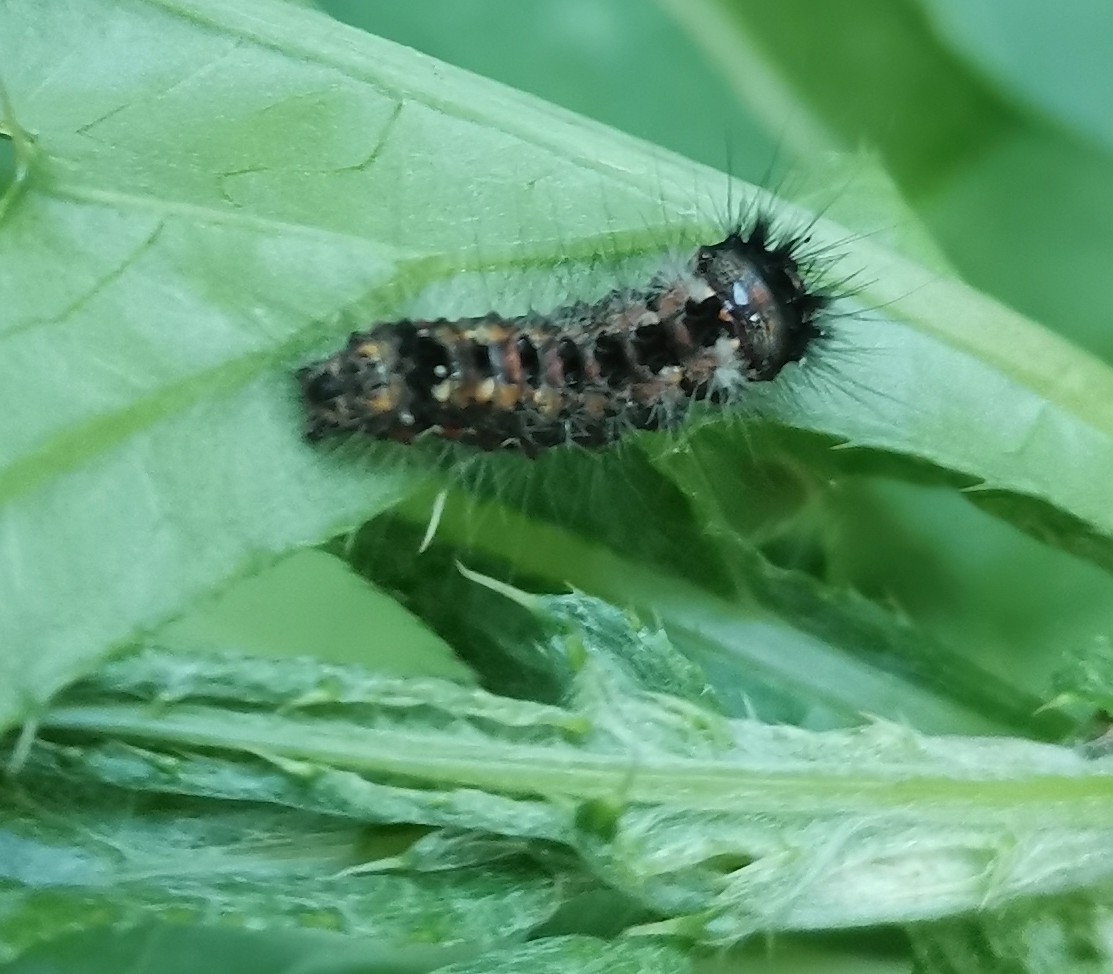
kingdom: Animalia
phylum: Arthropoda
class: Insecta
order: Lepidoptera
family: Noctuidae
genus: Acronicta
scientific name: Acronicta rumicis
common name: Knot grass
